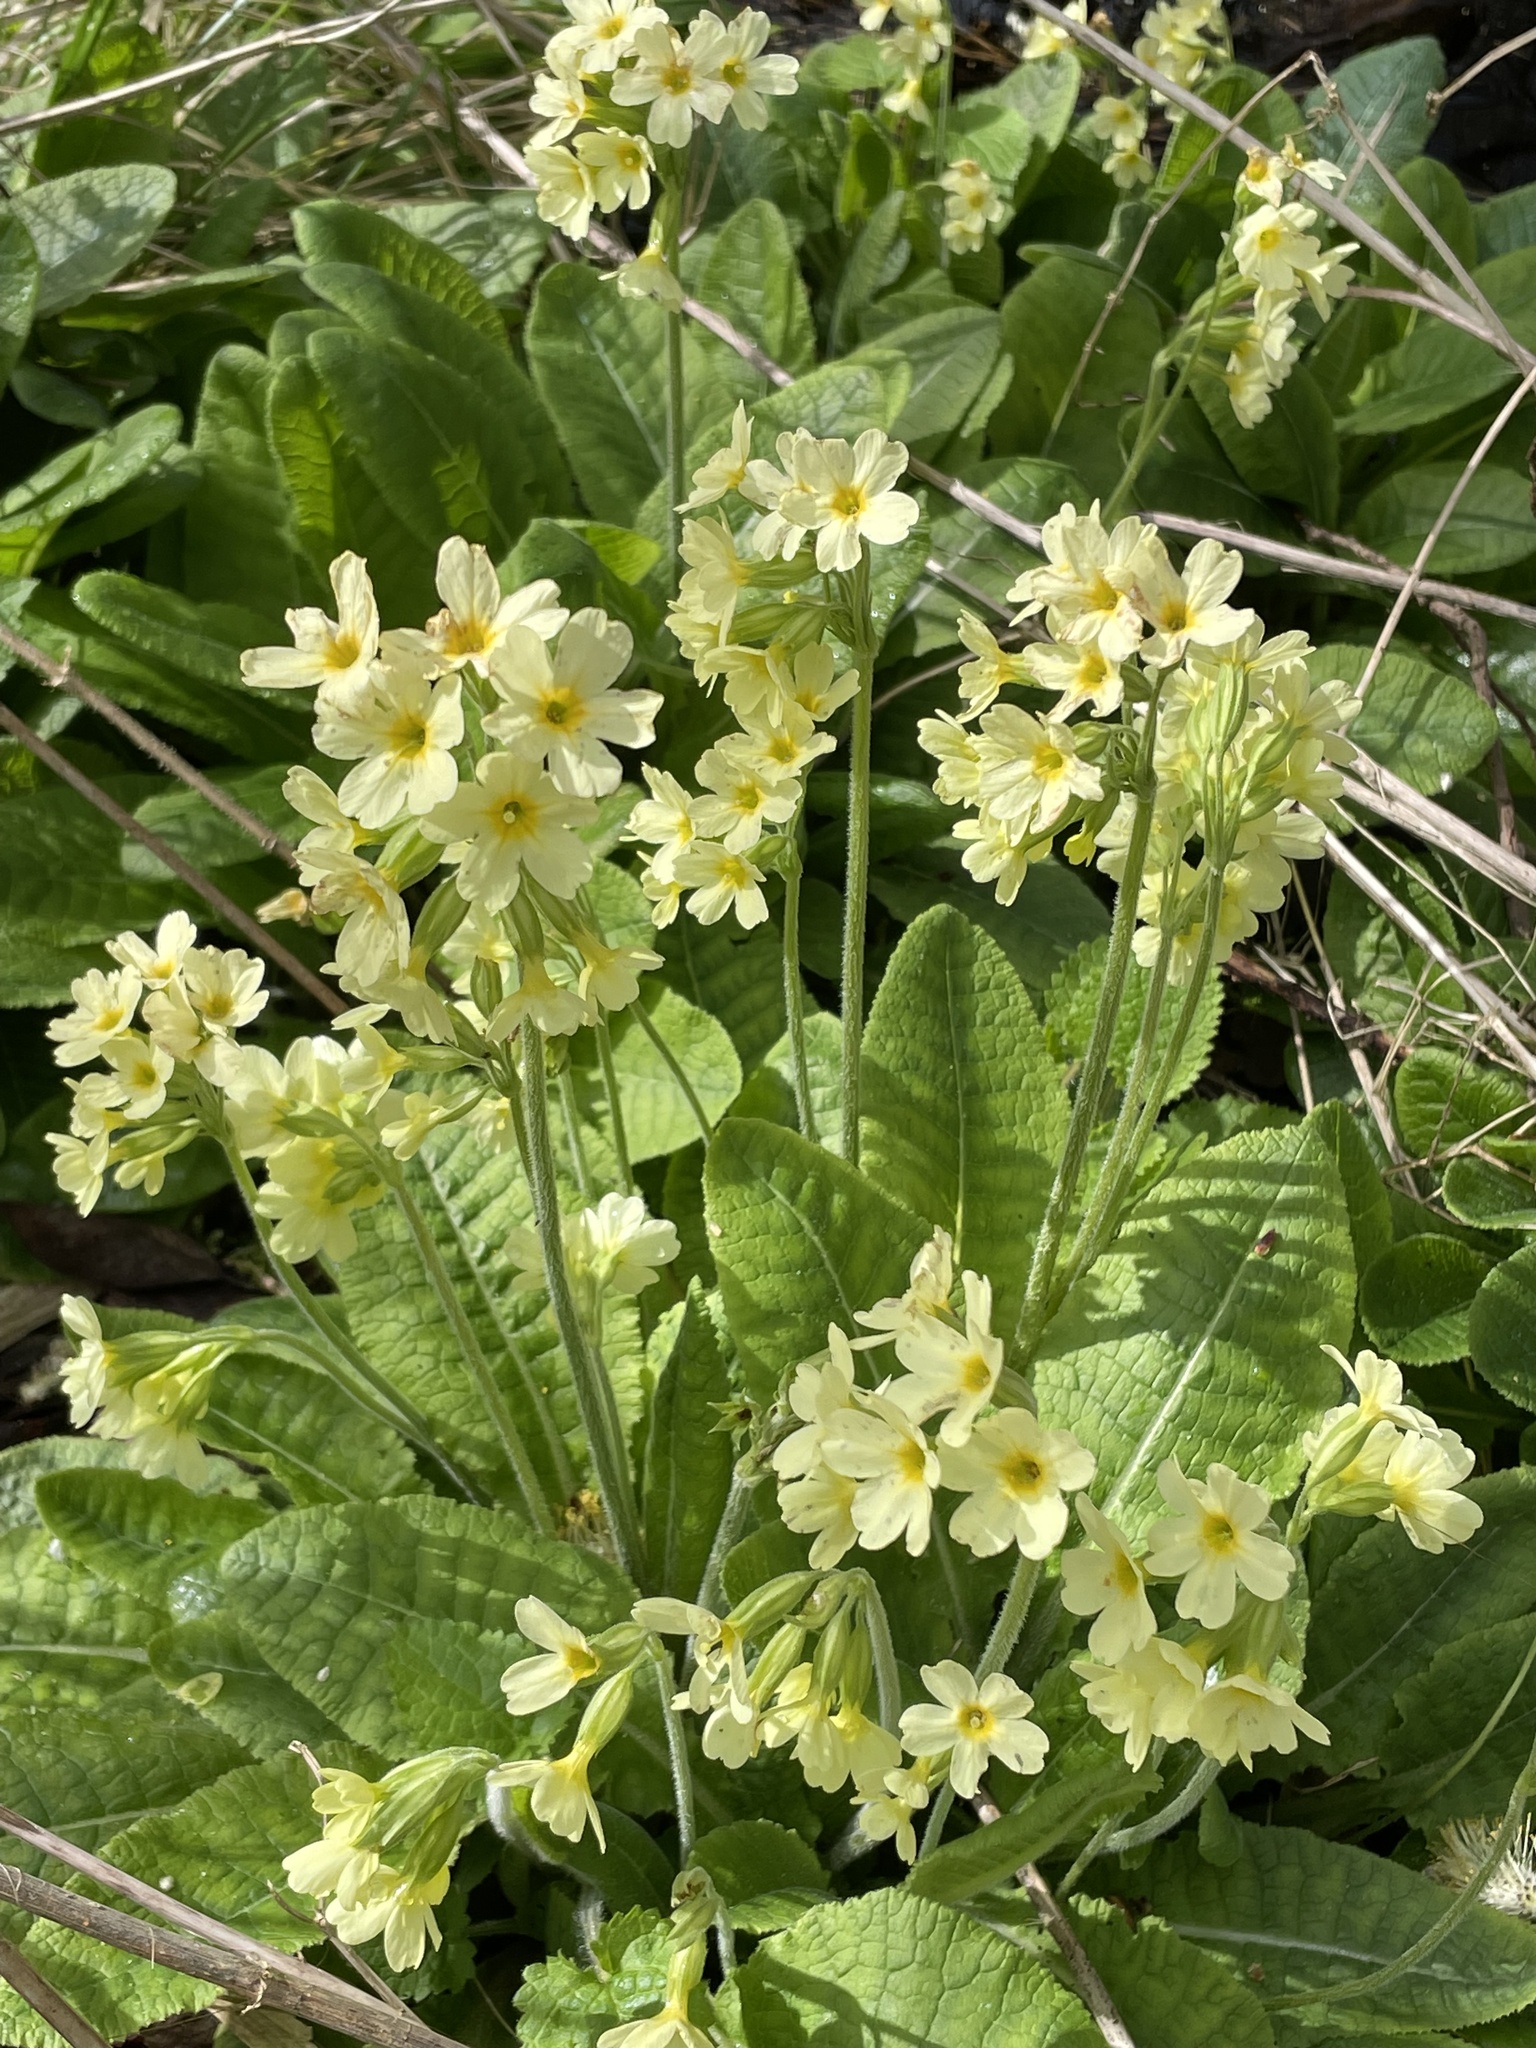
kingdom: Plantae
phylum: Tracheophyta
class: Magnoliopsida
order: Ericales
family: Primulaceae
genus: Primula
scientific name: Primula elatior
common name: Oxlip
